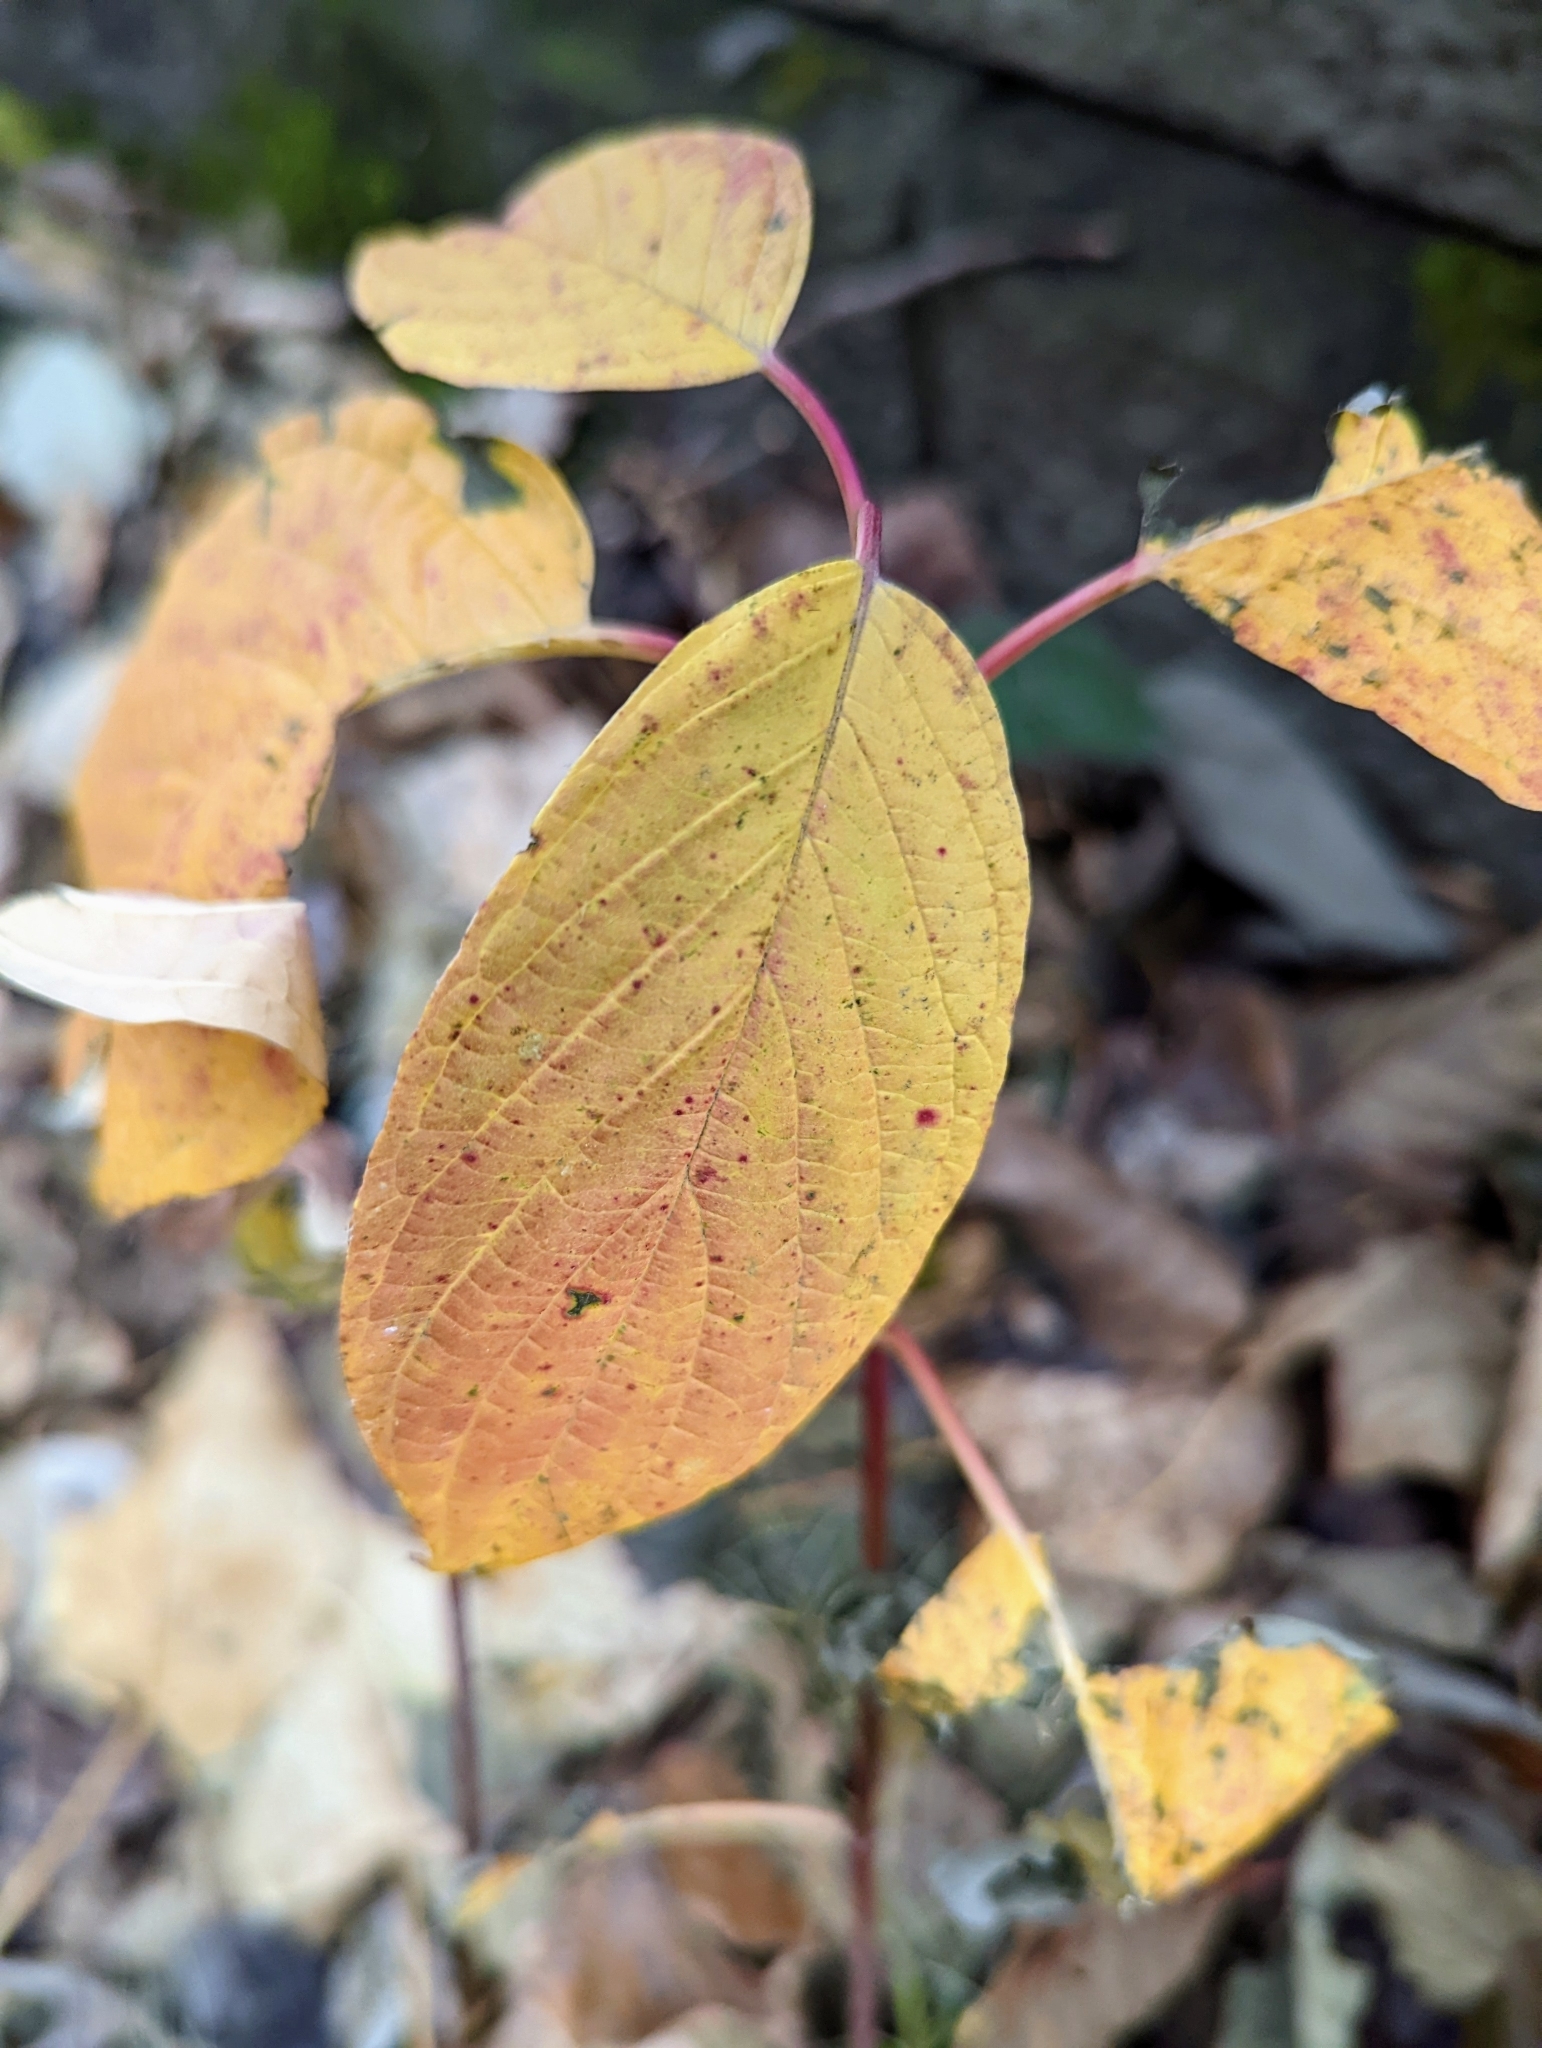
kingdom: Plantae
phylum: Tracheophyta
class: Magnoliopsida
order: Cornales
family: Cornaceae
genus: Cornus
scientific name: Cornus sericea
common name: Red-osier dogwood
